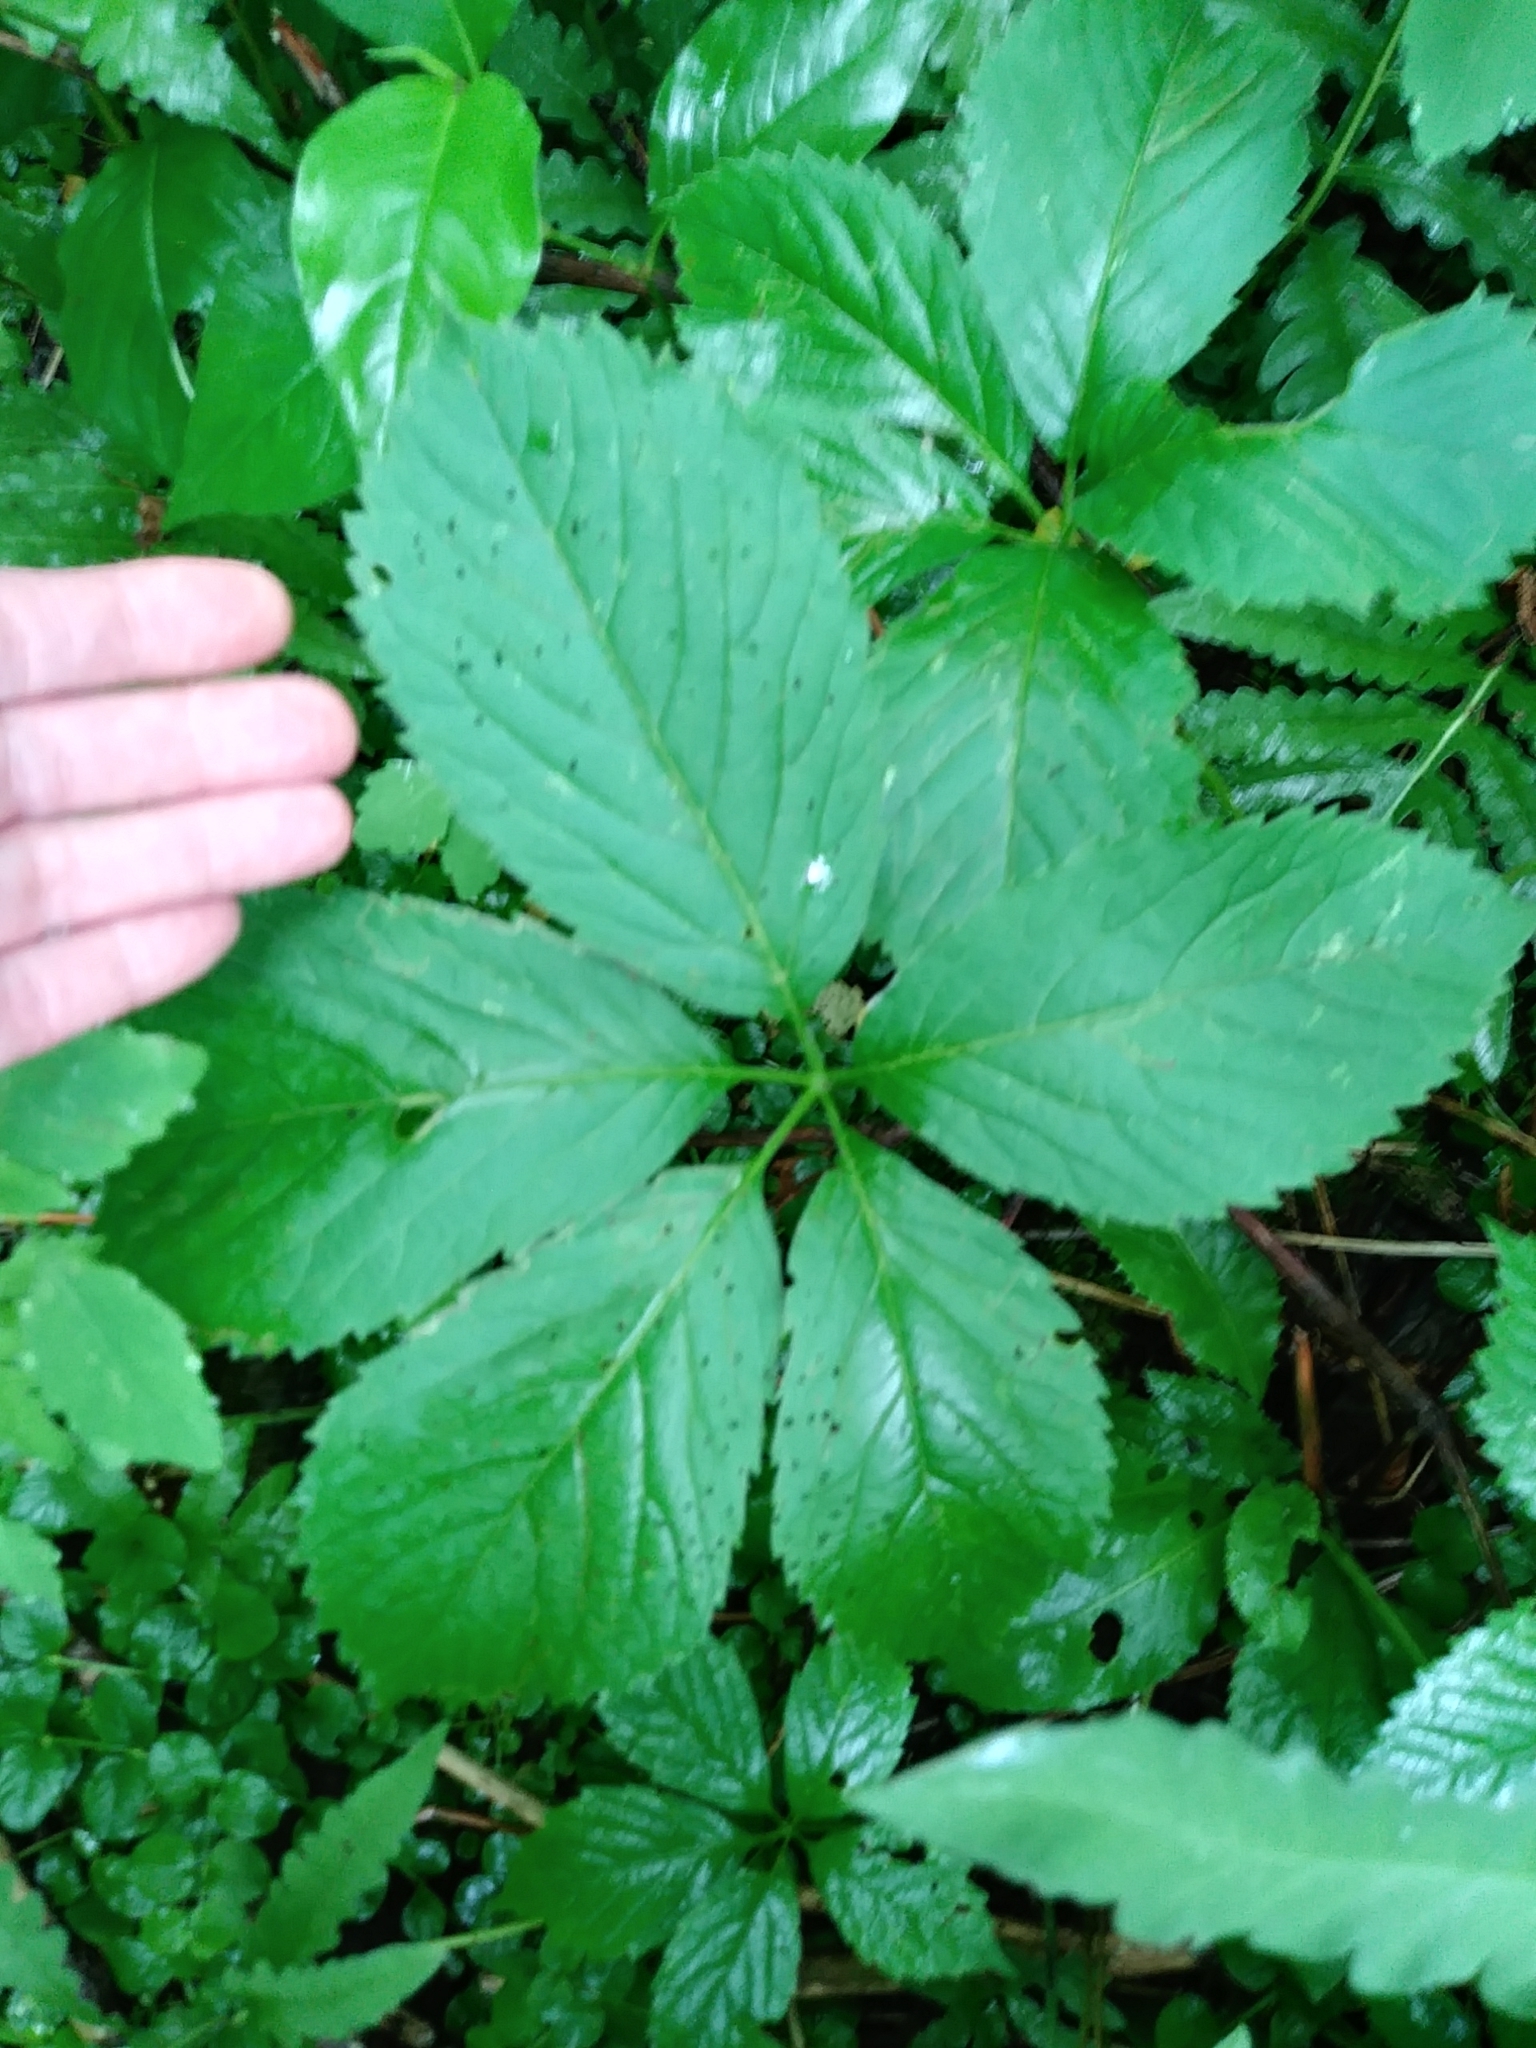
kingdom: Plantae
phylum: Tracheophyta
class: Magnoliopsida
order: Vitales
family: Vitaceae
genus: Parthenocissus
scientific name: Parthenocissus inserta
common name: False virginia-creeper
